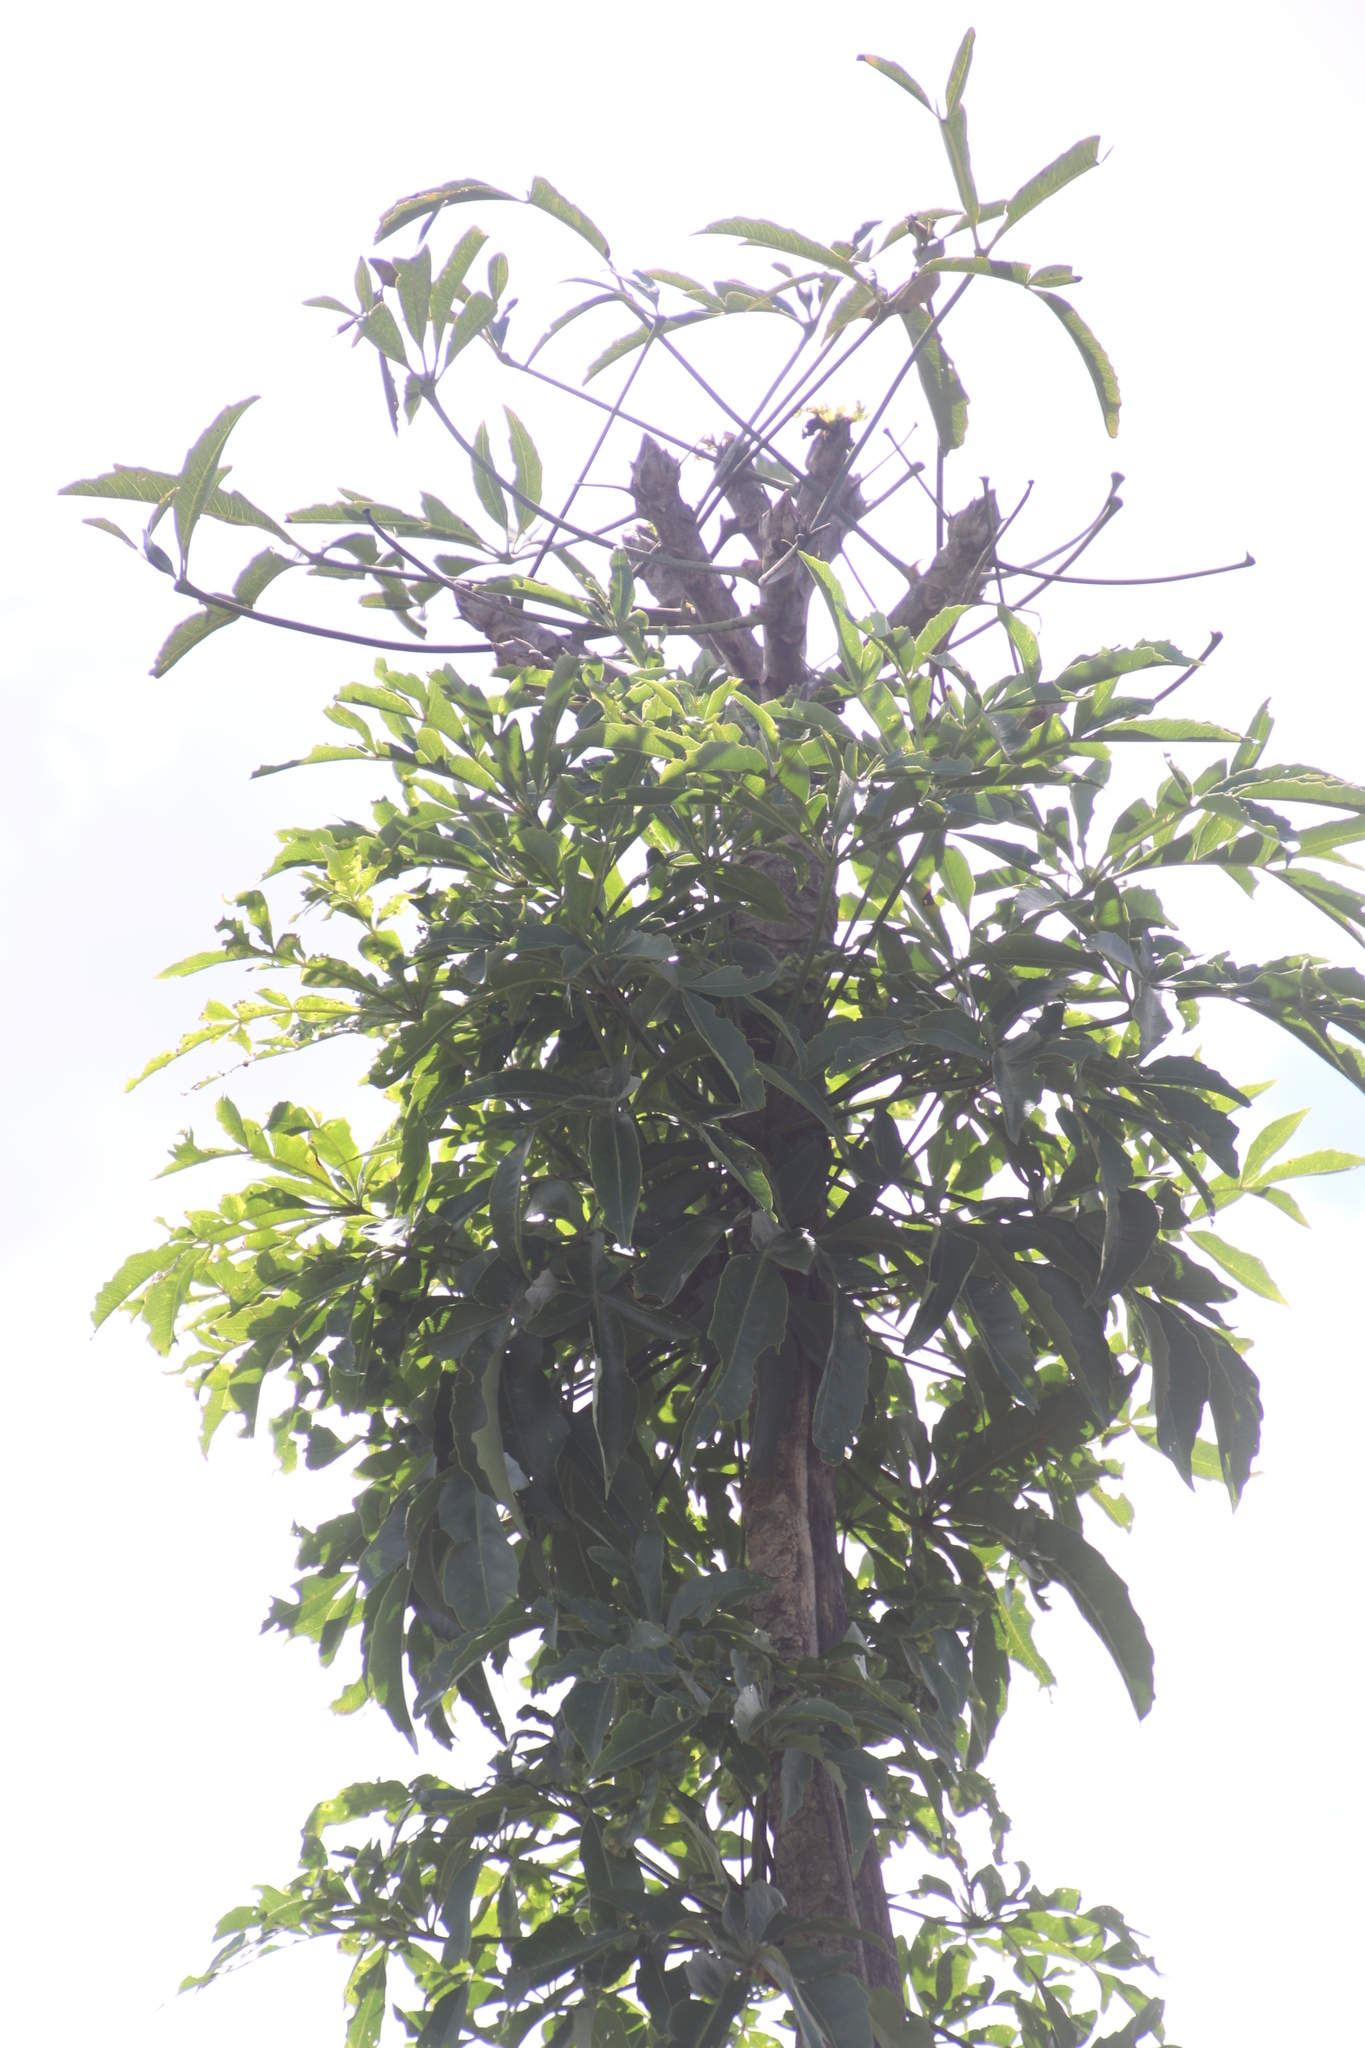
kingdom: Plantae
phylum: Tracheophyta
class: Magnoliopsida
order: Apiales
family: Araliaceae
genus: Cussonia
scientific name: Cussonia spicata
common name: Common cabbagetree
